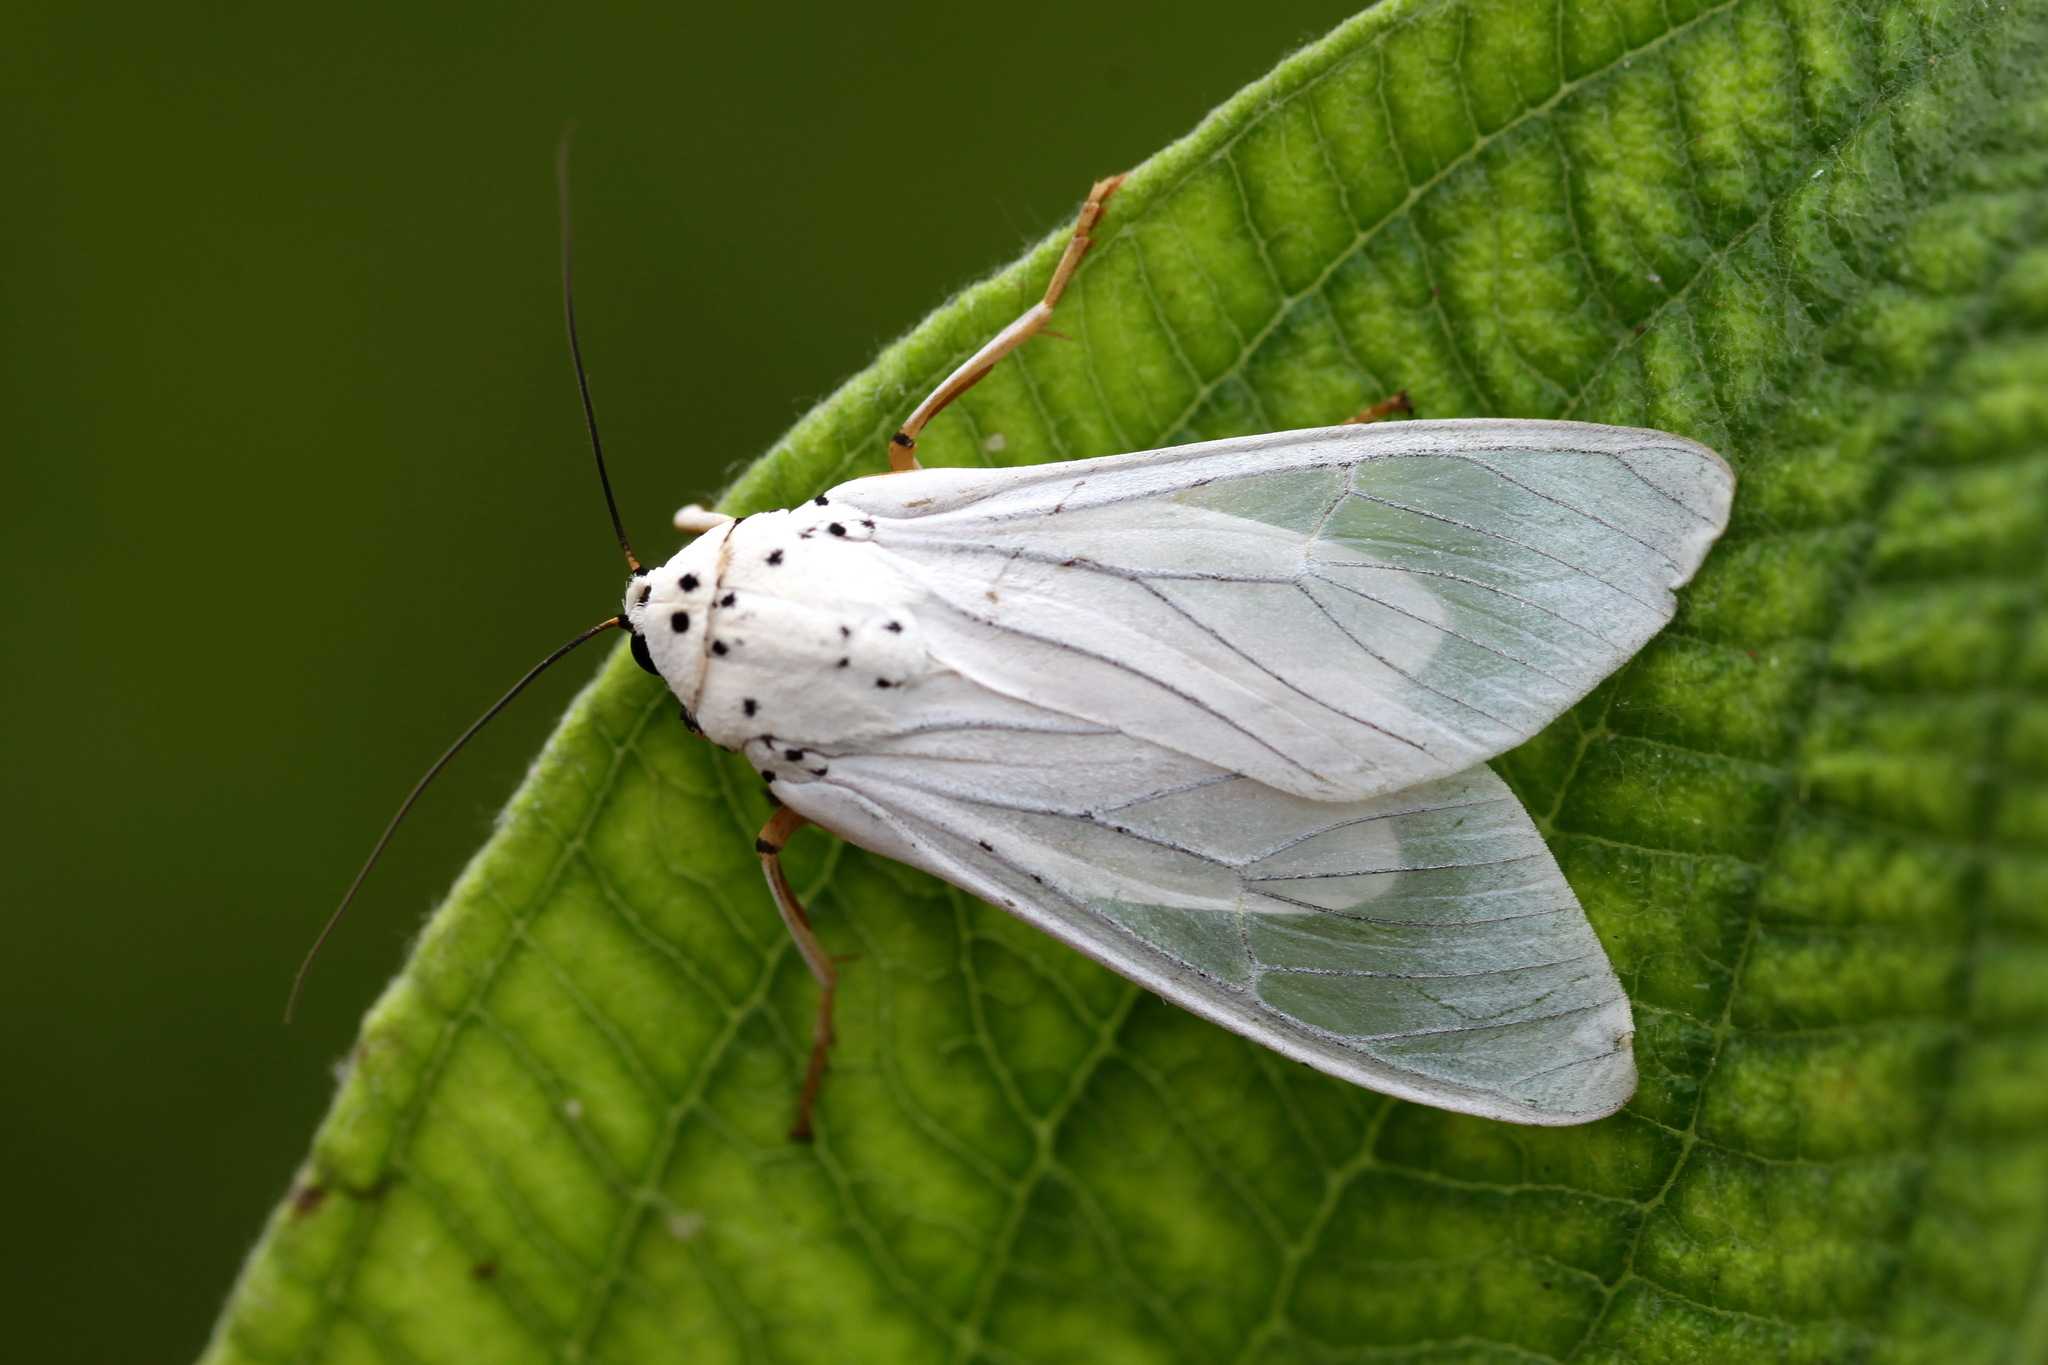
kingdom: Animalia
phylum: Arthropoda
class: Insecta
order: Lepidoptera
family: Erebidae
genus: Amerila
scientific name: Amerila bubo
